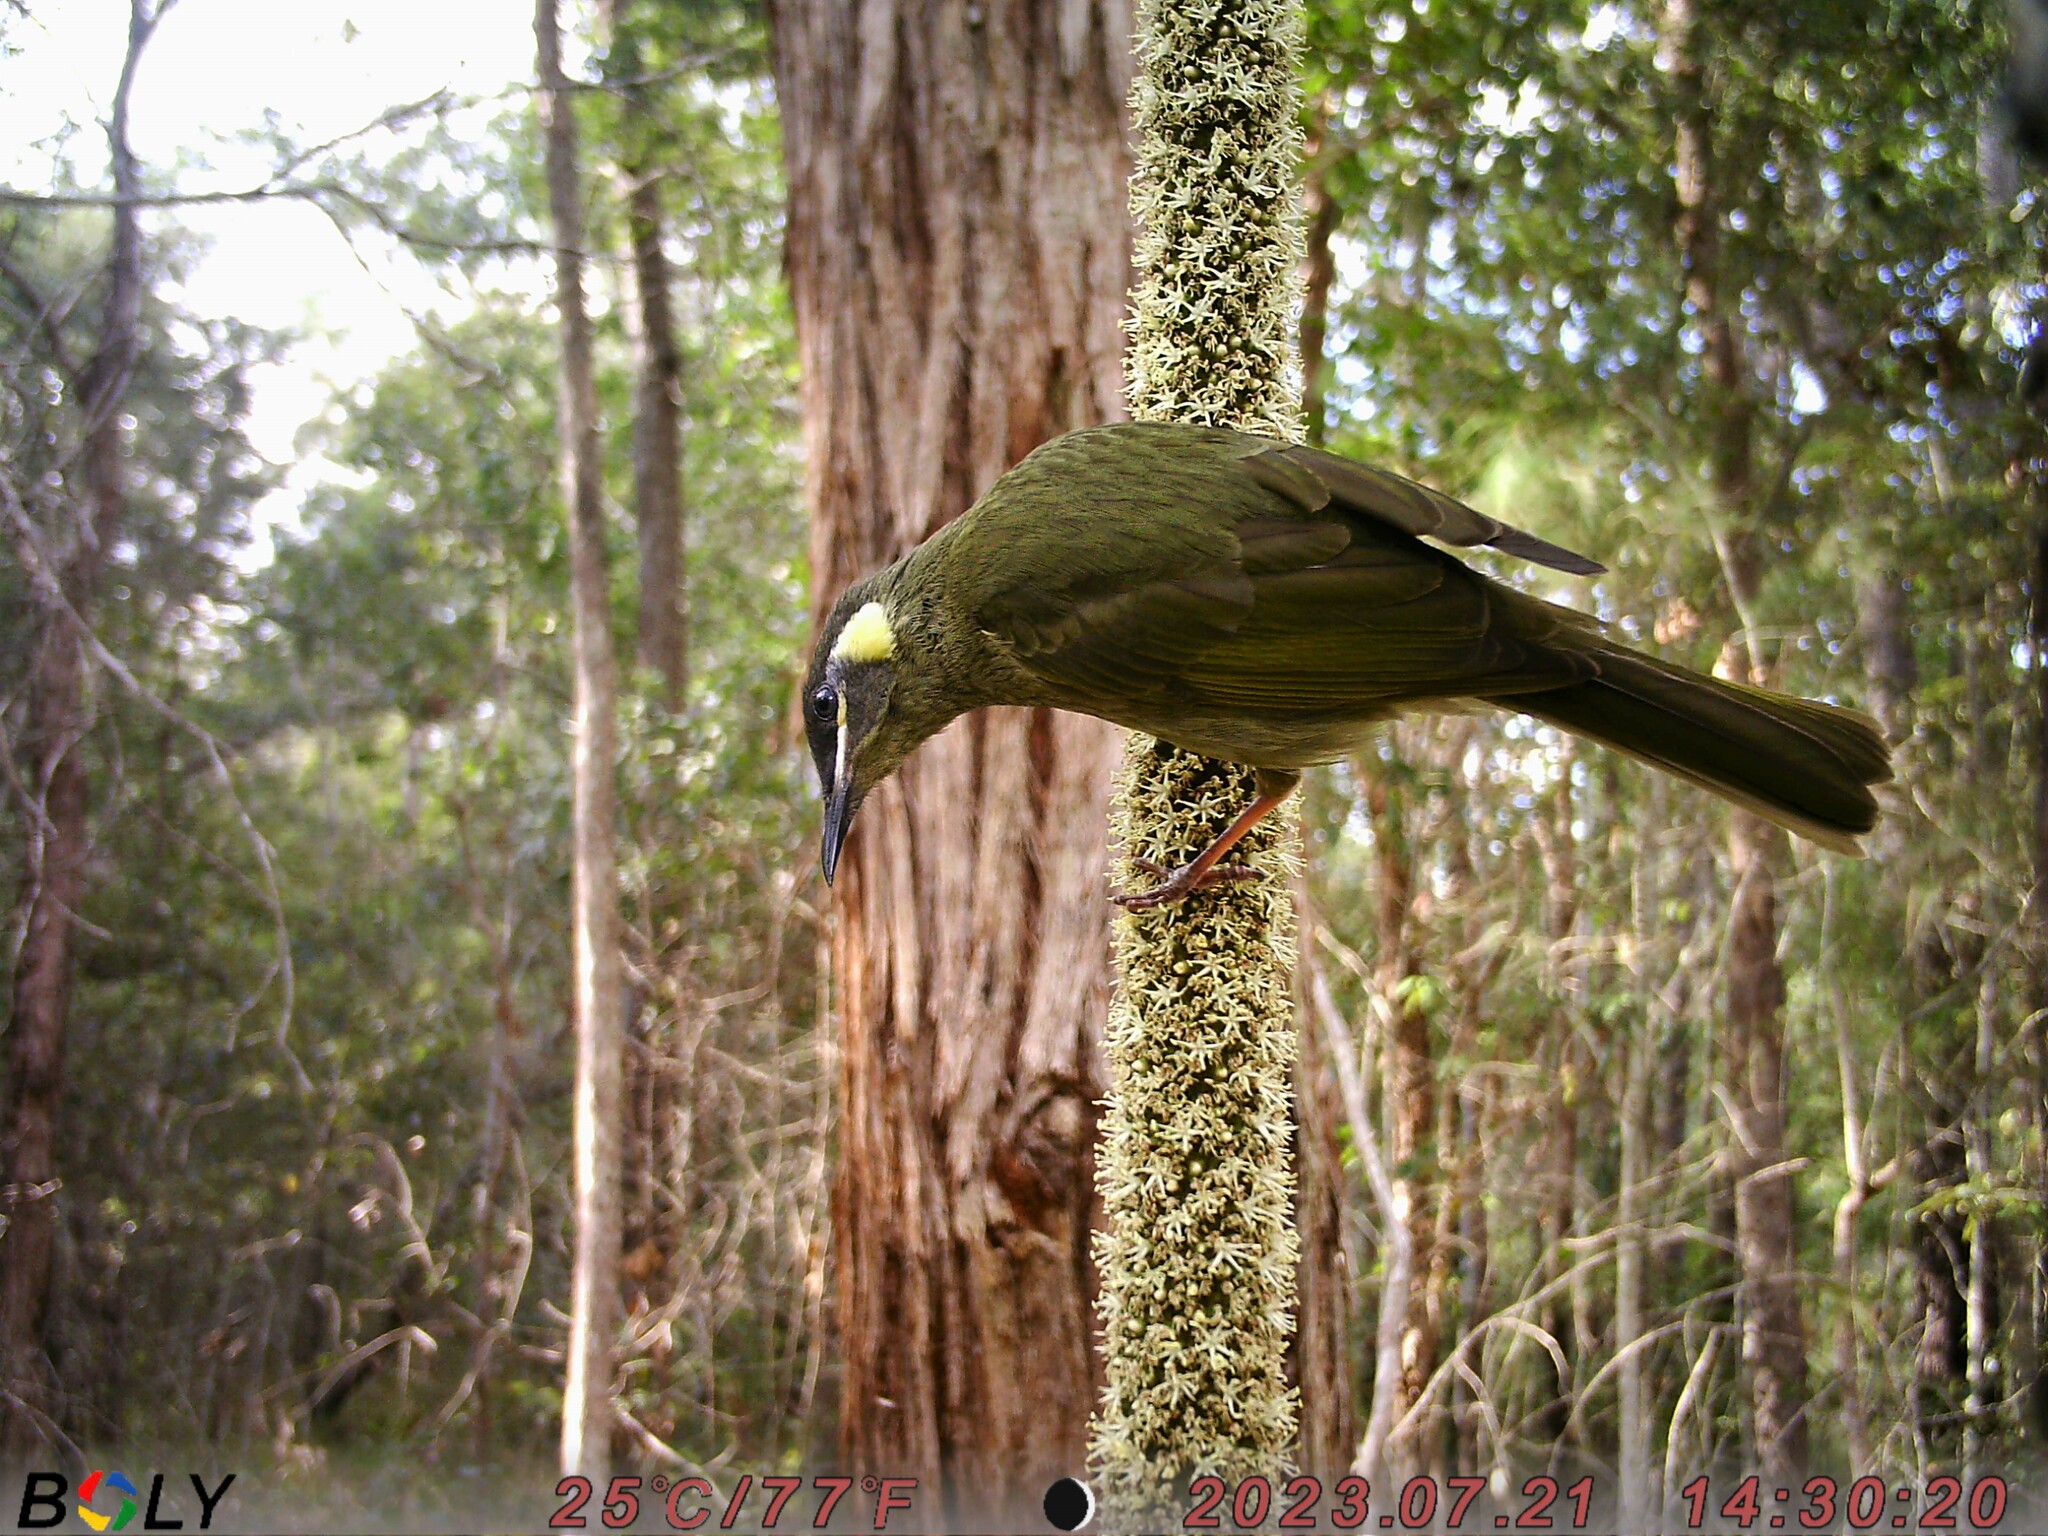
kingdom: Animalia
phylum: Chordata
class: Aves
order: Passeriformes
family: Meliphagidae
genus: Meliphaga
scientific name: Meliphaga lewinii
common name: Lewin's honeyeater
